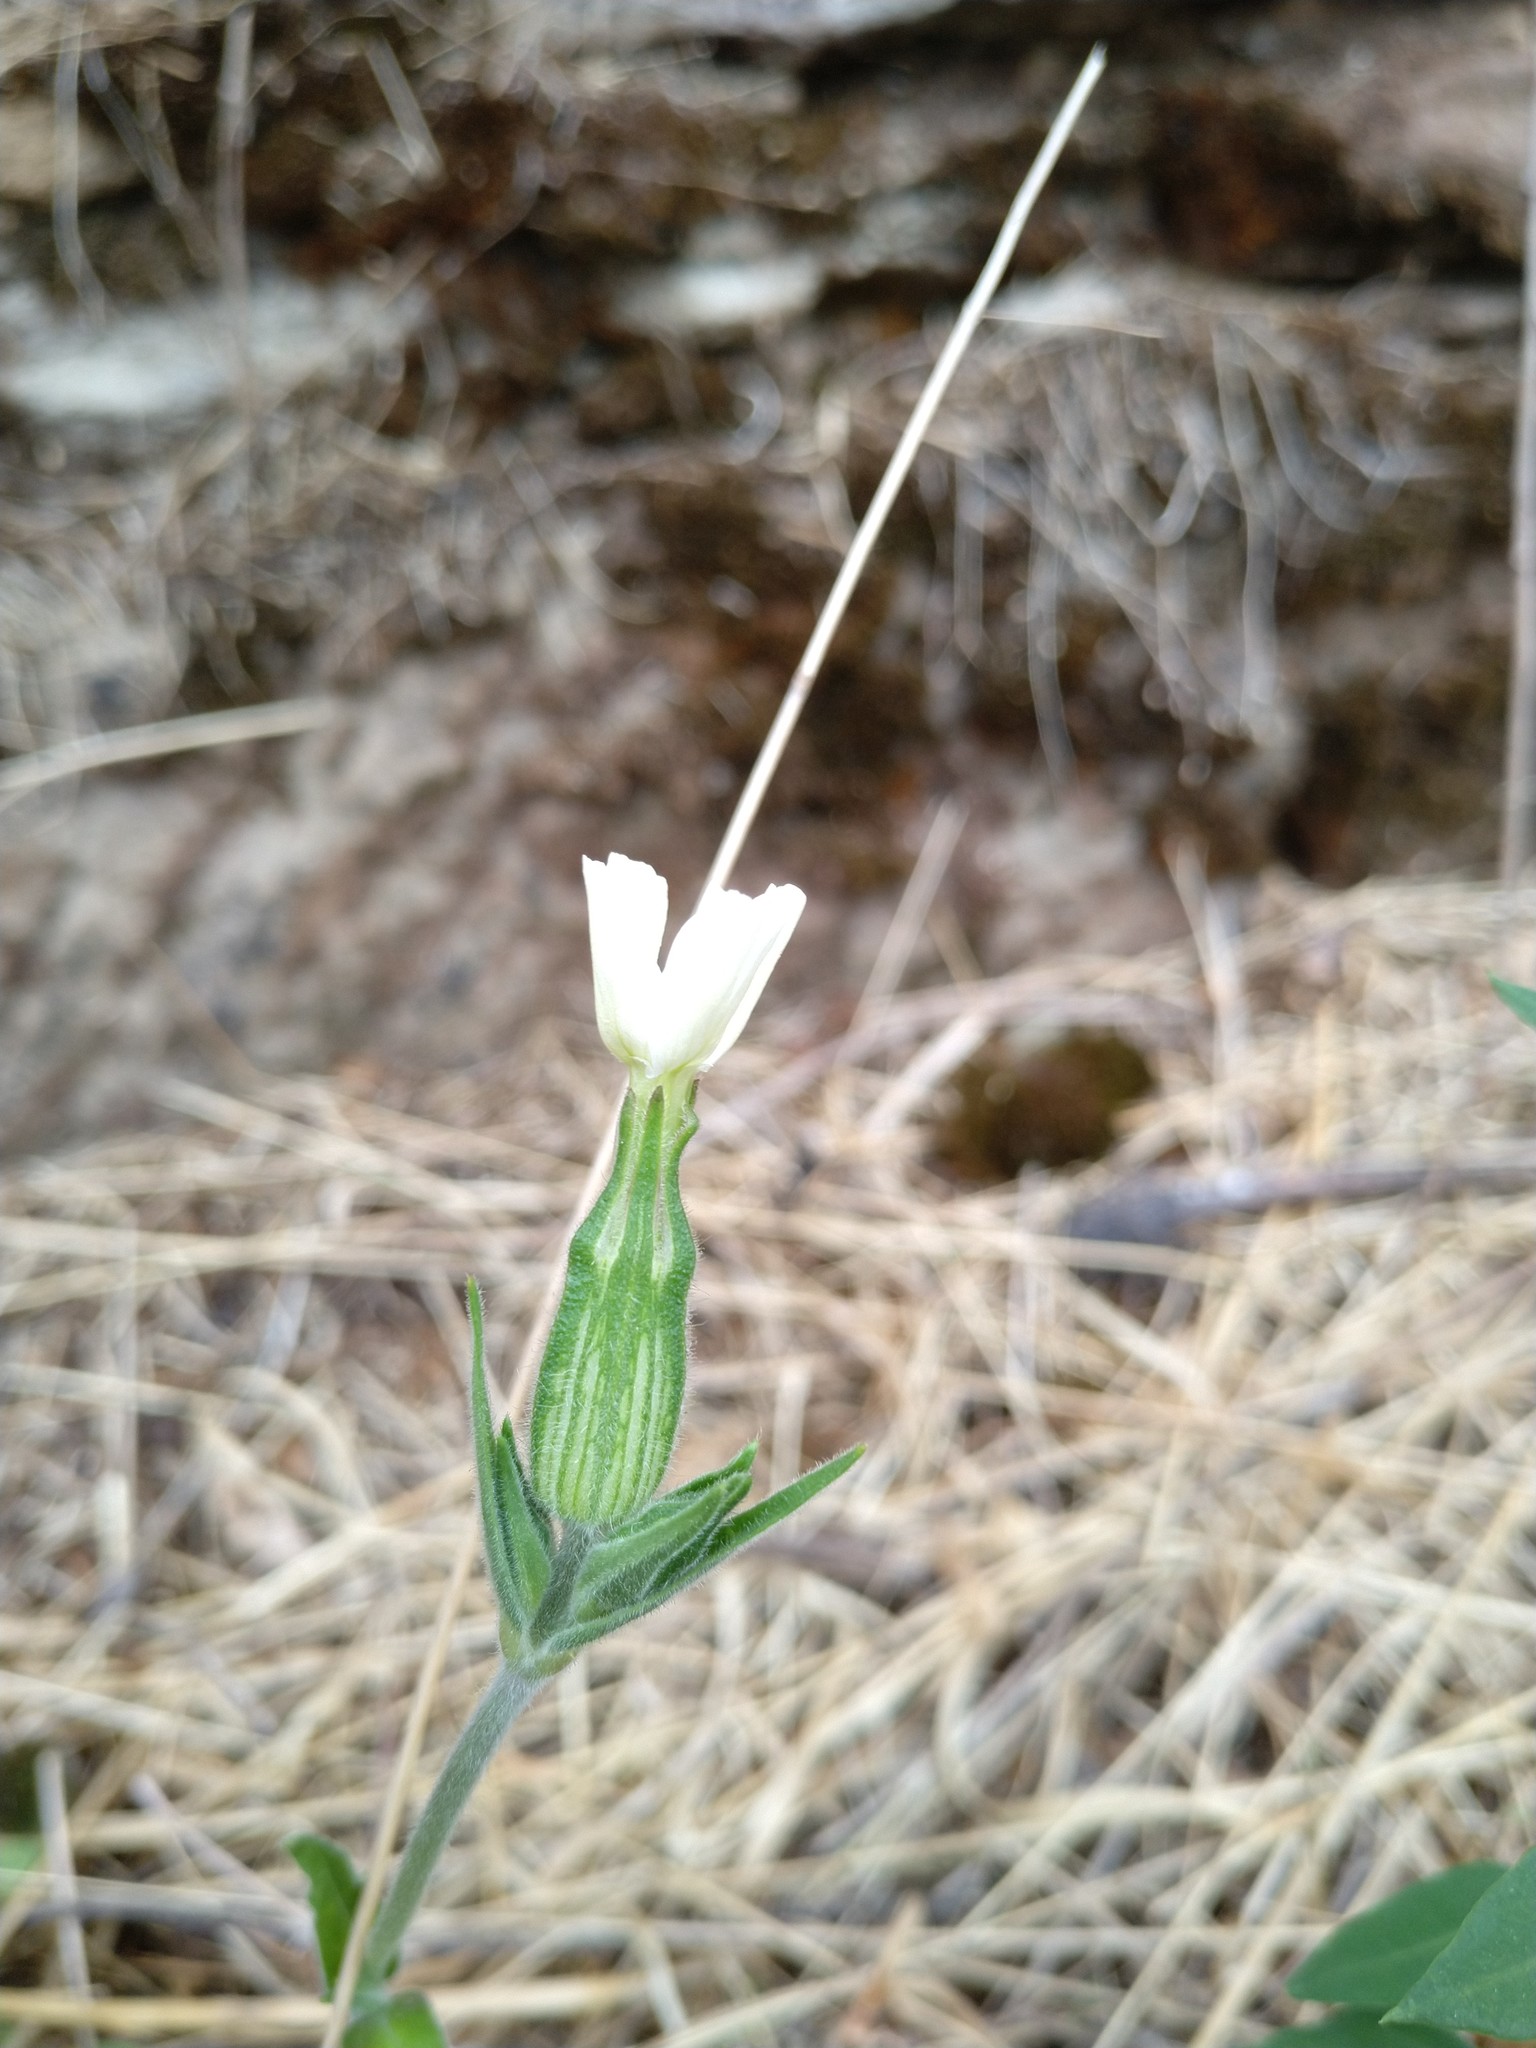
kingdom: Plantae
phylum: Tracheophyta
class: Magnoliopsida
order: Caryophyllales
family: Caryophyllaceae
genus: Silene
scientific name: Silene latifolia
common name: White campion
